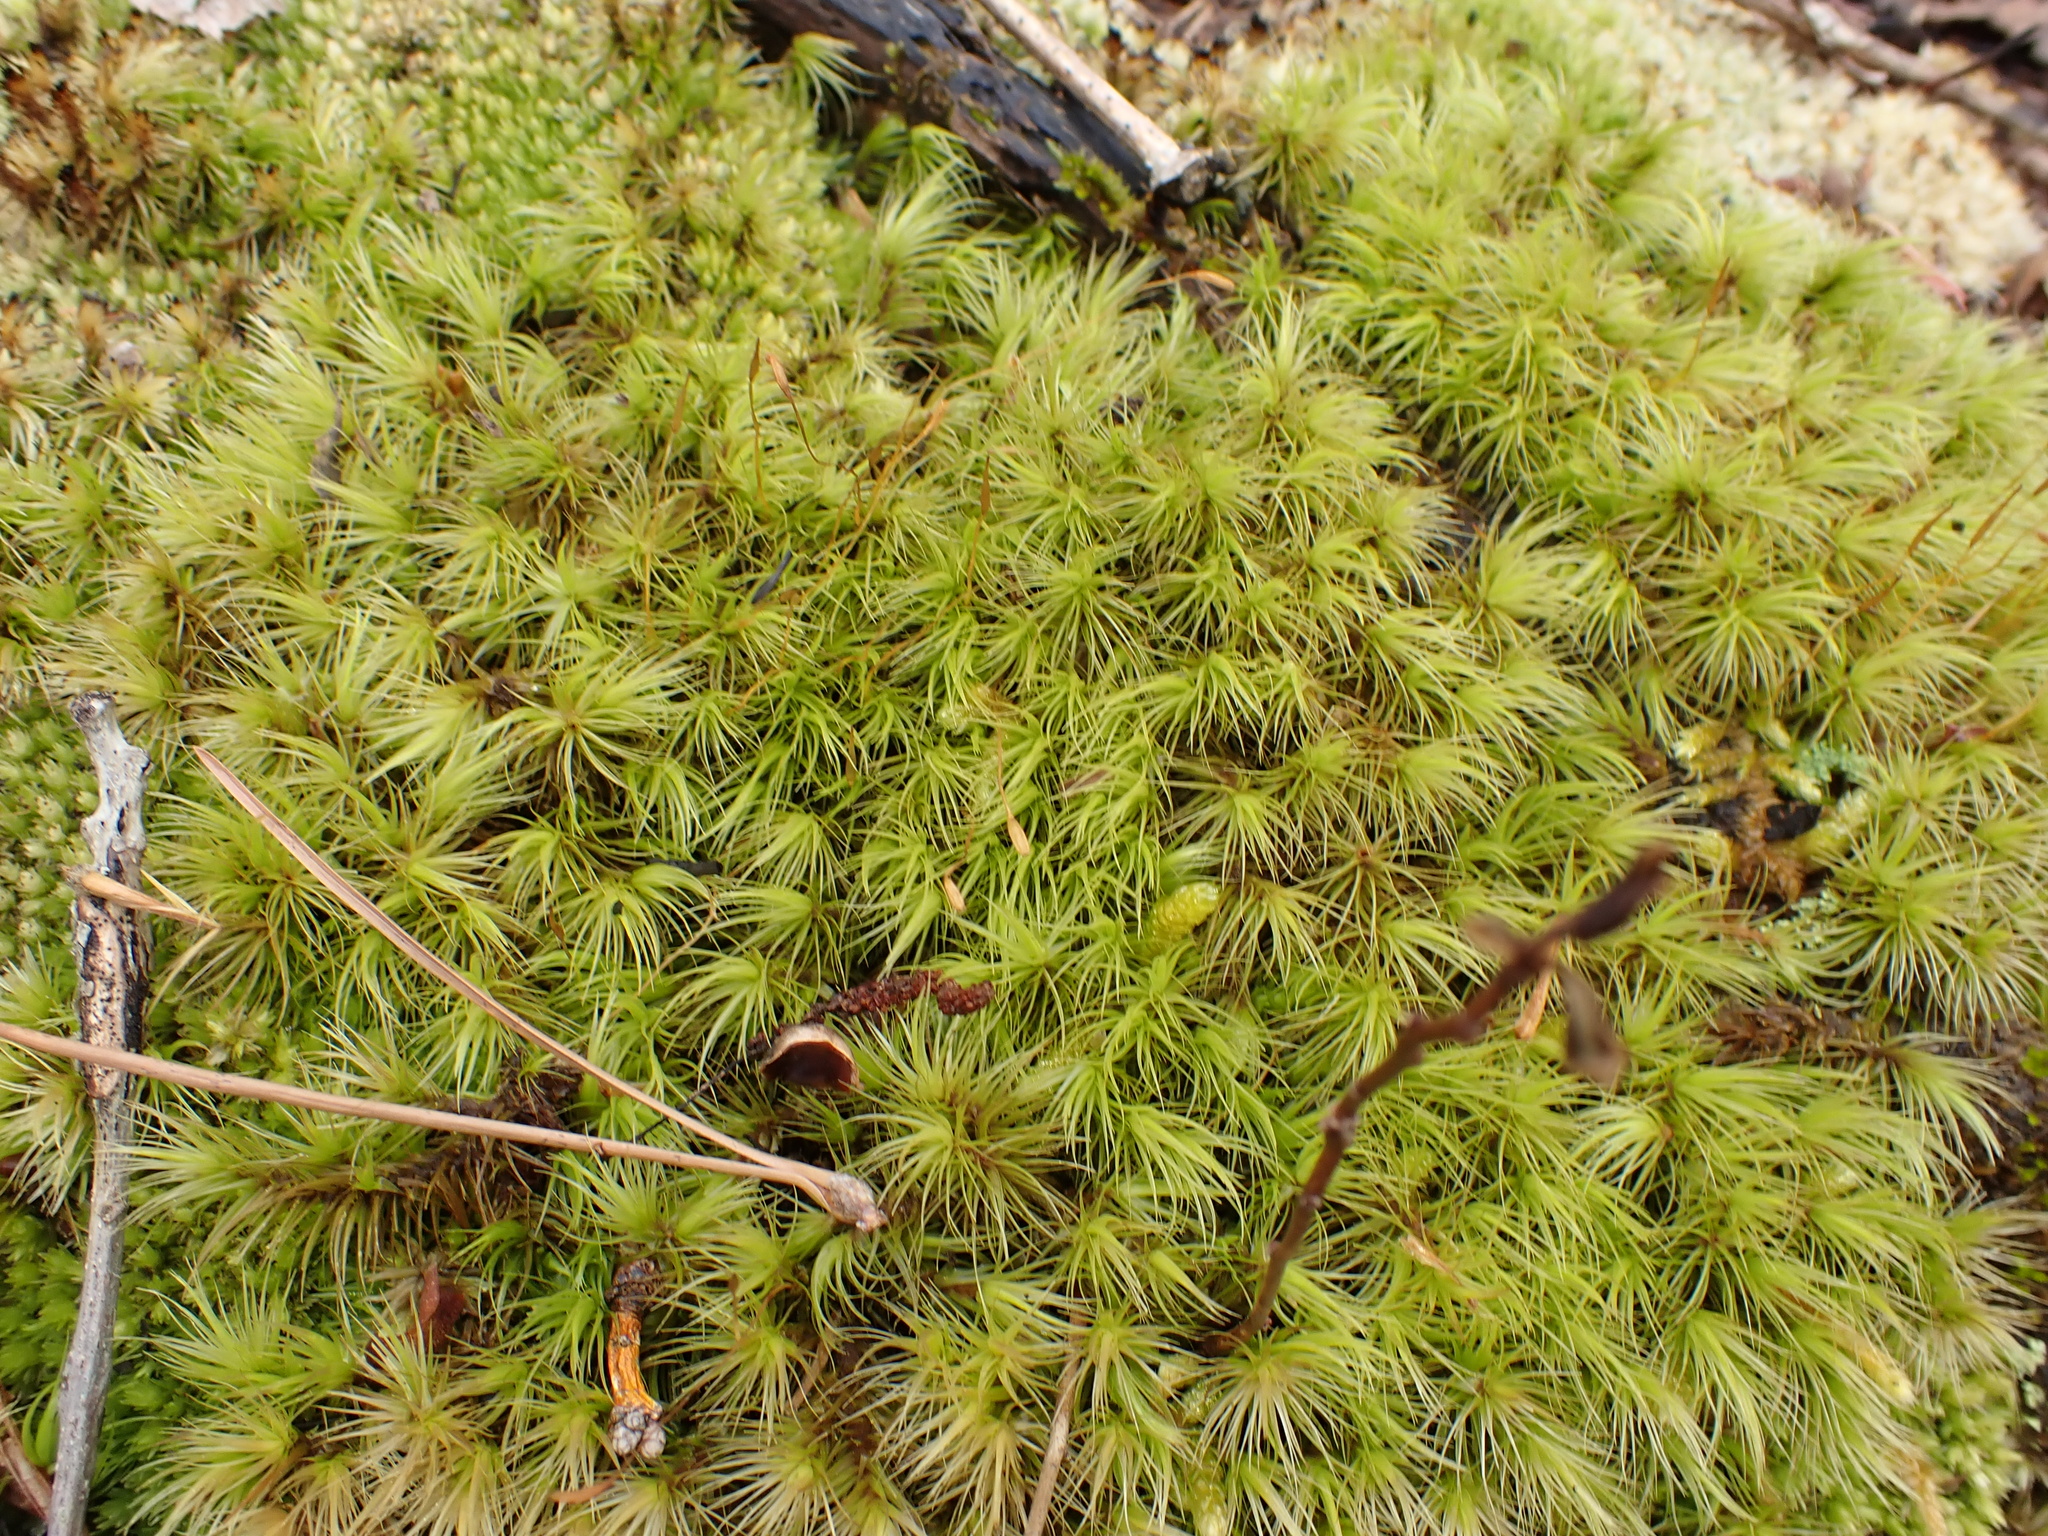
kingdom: Plantae
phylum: Bryophyta
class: Bryopsida
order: Dicranales
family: Dicranaceae
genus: Dicranum
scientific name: Dicranum scoparium
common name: Broom fork-moss
